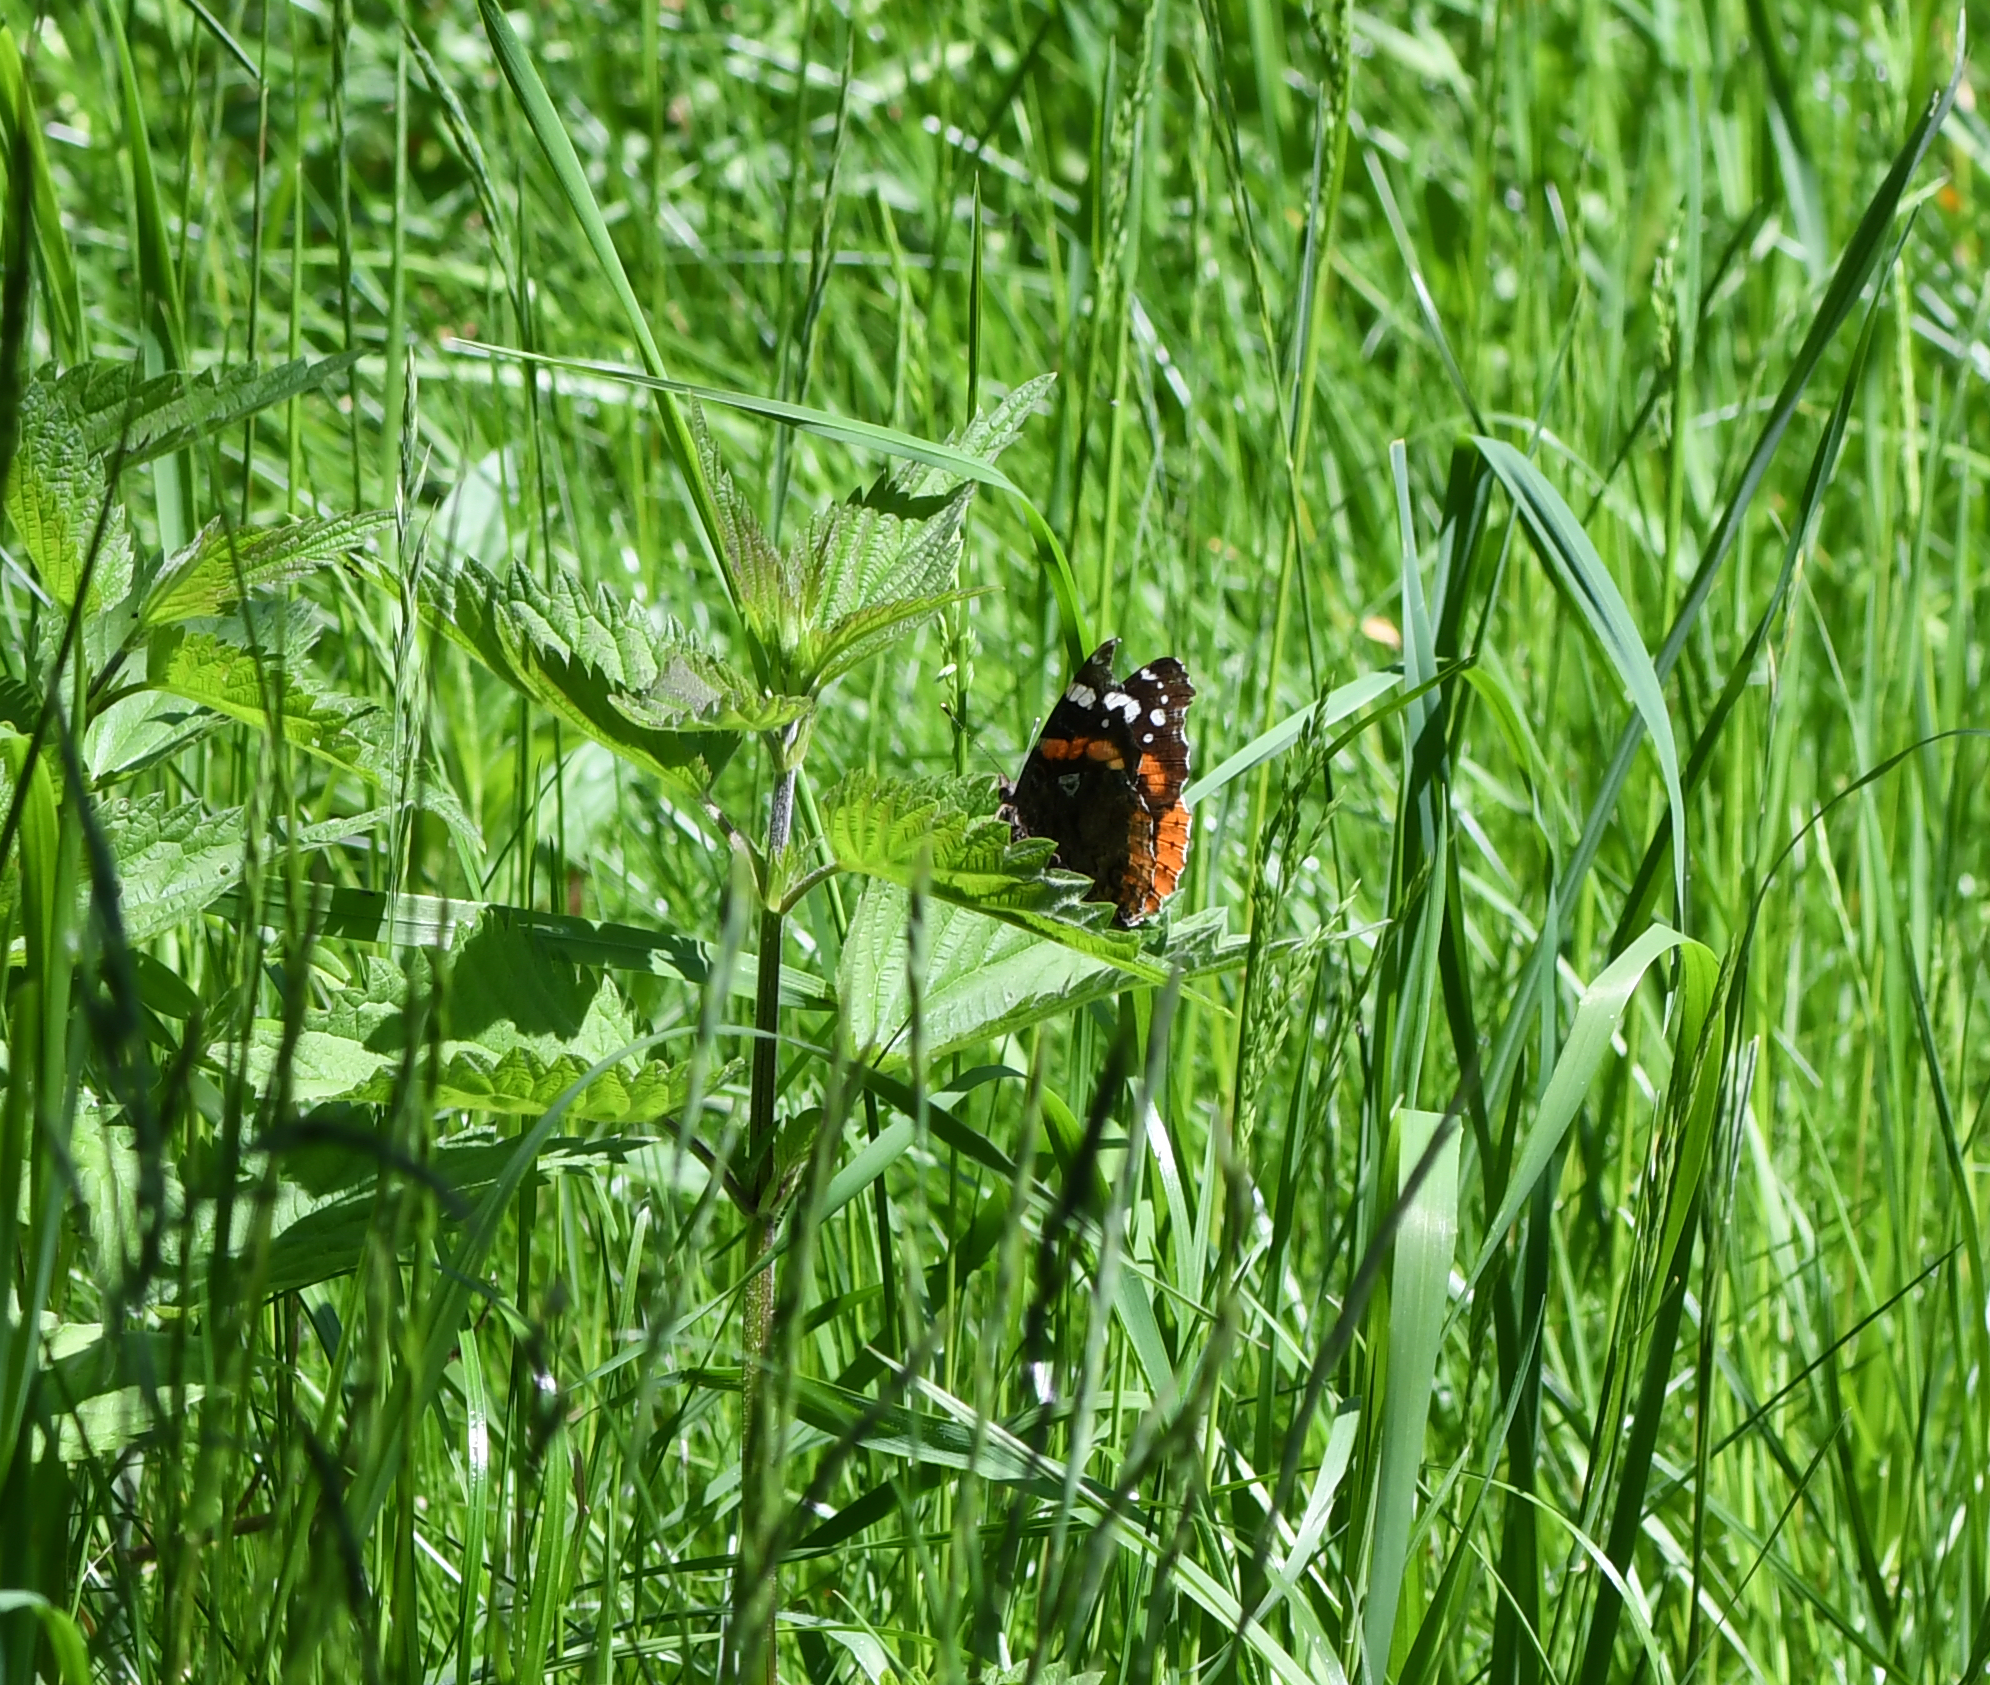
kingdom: Animalia
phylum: Arthropoda
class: Insecta
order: Lepidoptera
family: Nymphalidae
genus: Vanessa
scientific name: Vanessa atalanta
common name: Red admiral
